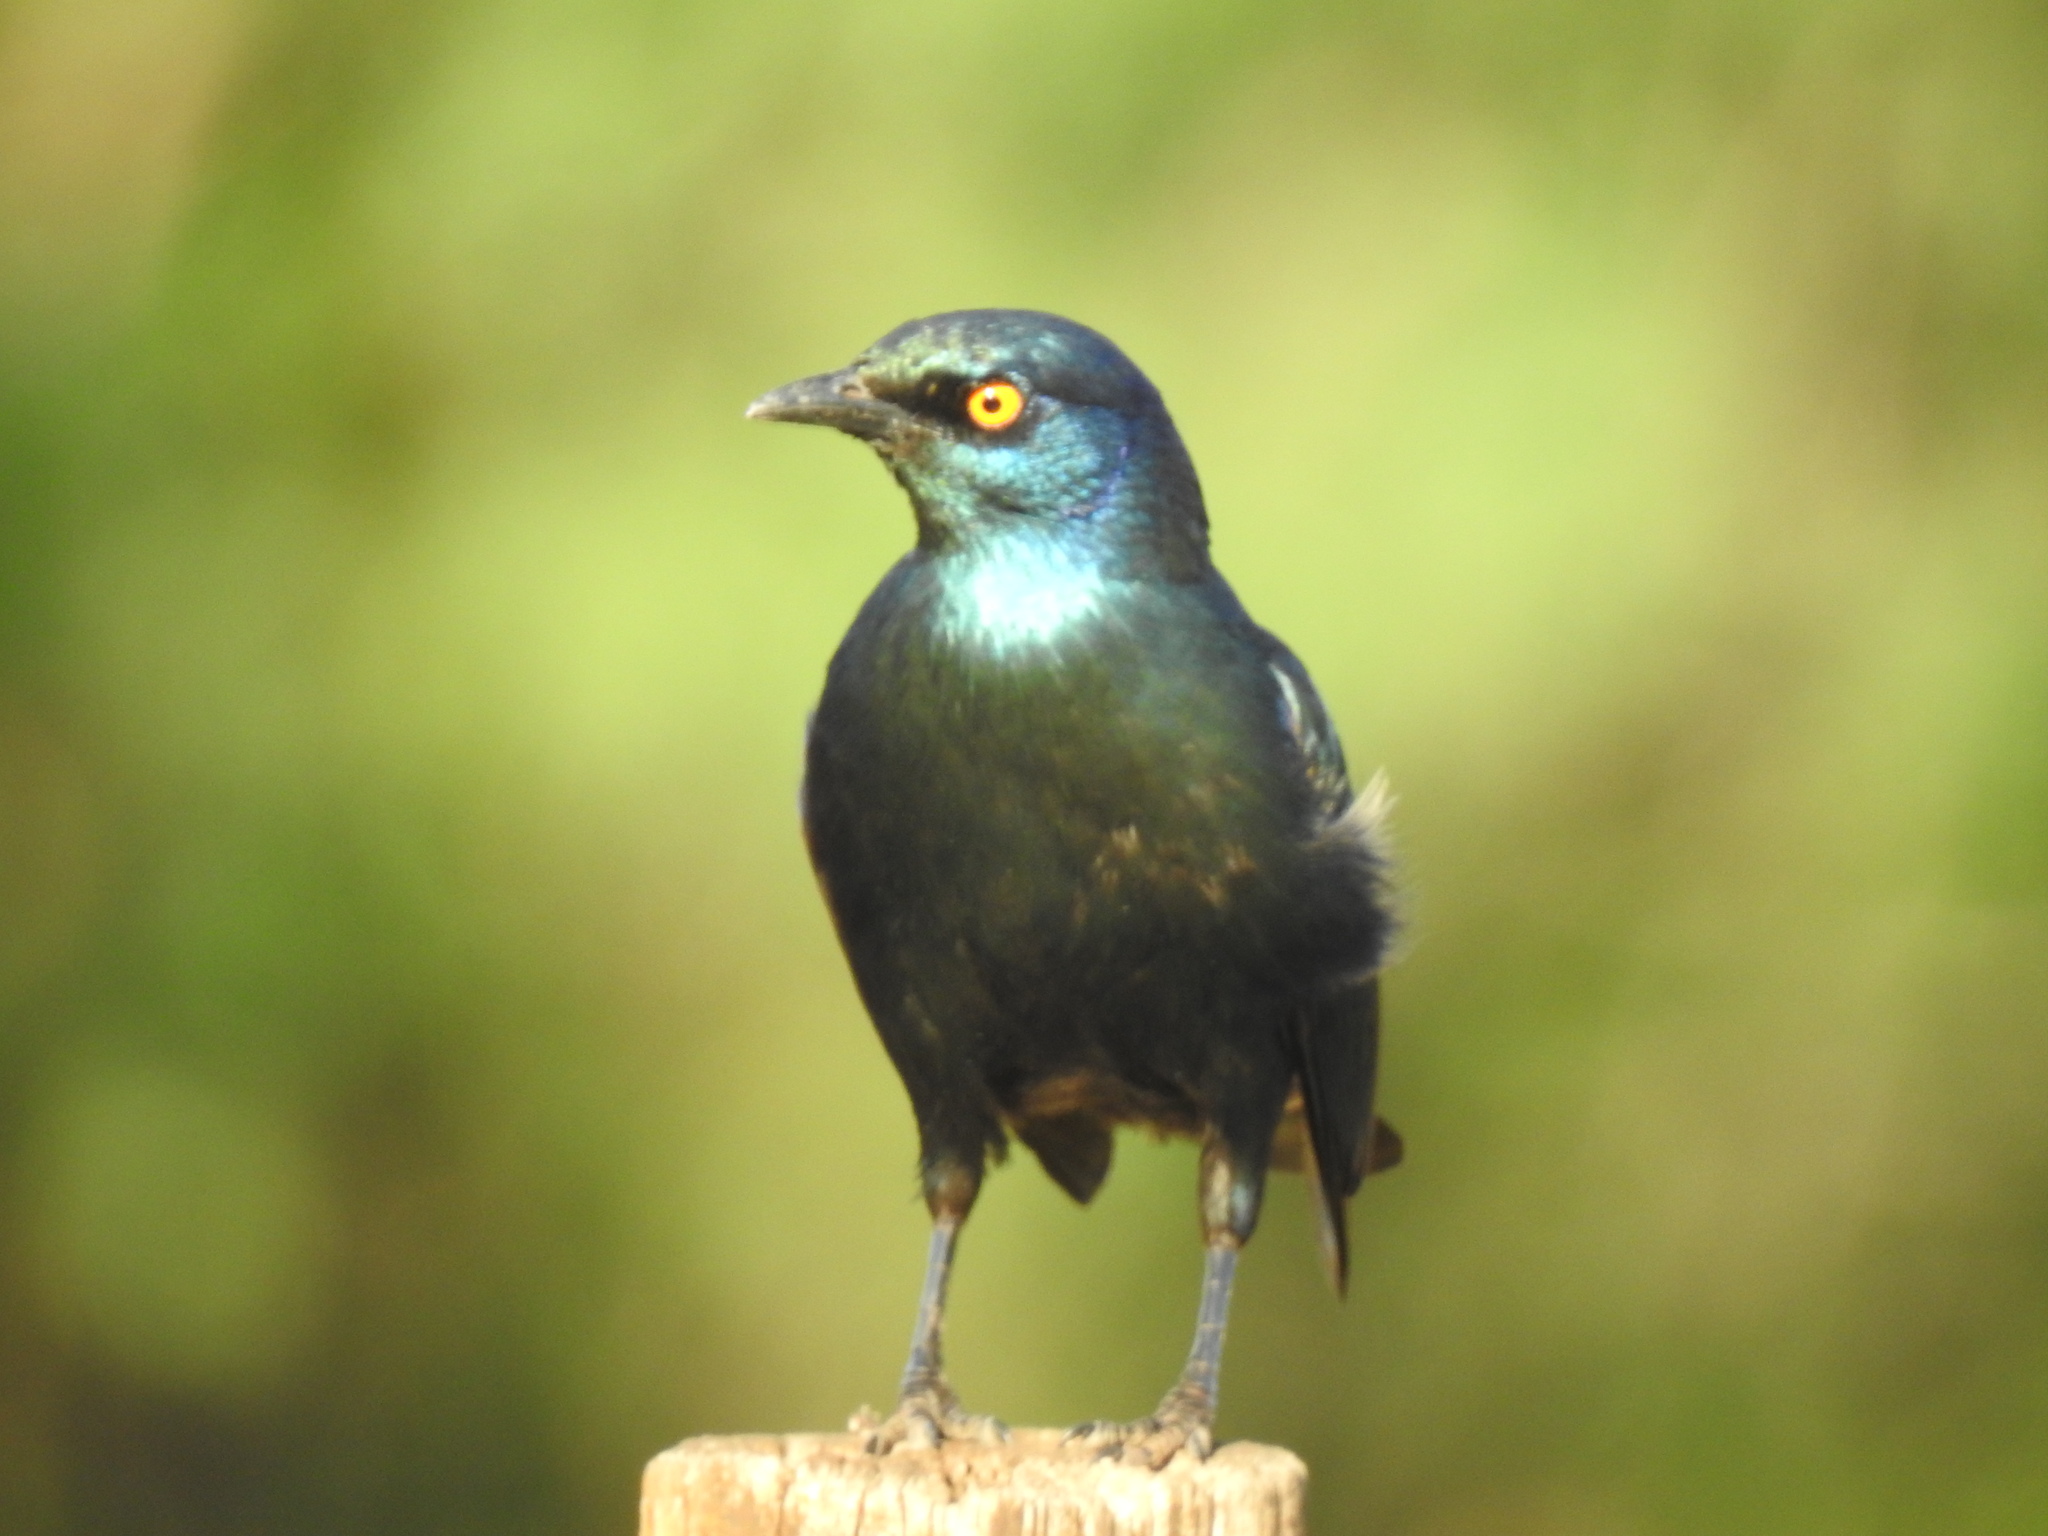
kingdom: Animalia
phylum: Chordata
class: Aves
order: Passeriformes
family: Sturnidae
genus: Lamprotornis
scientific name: Lamprotornis nitens
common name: Cape starling
